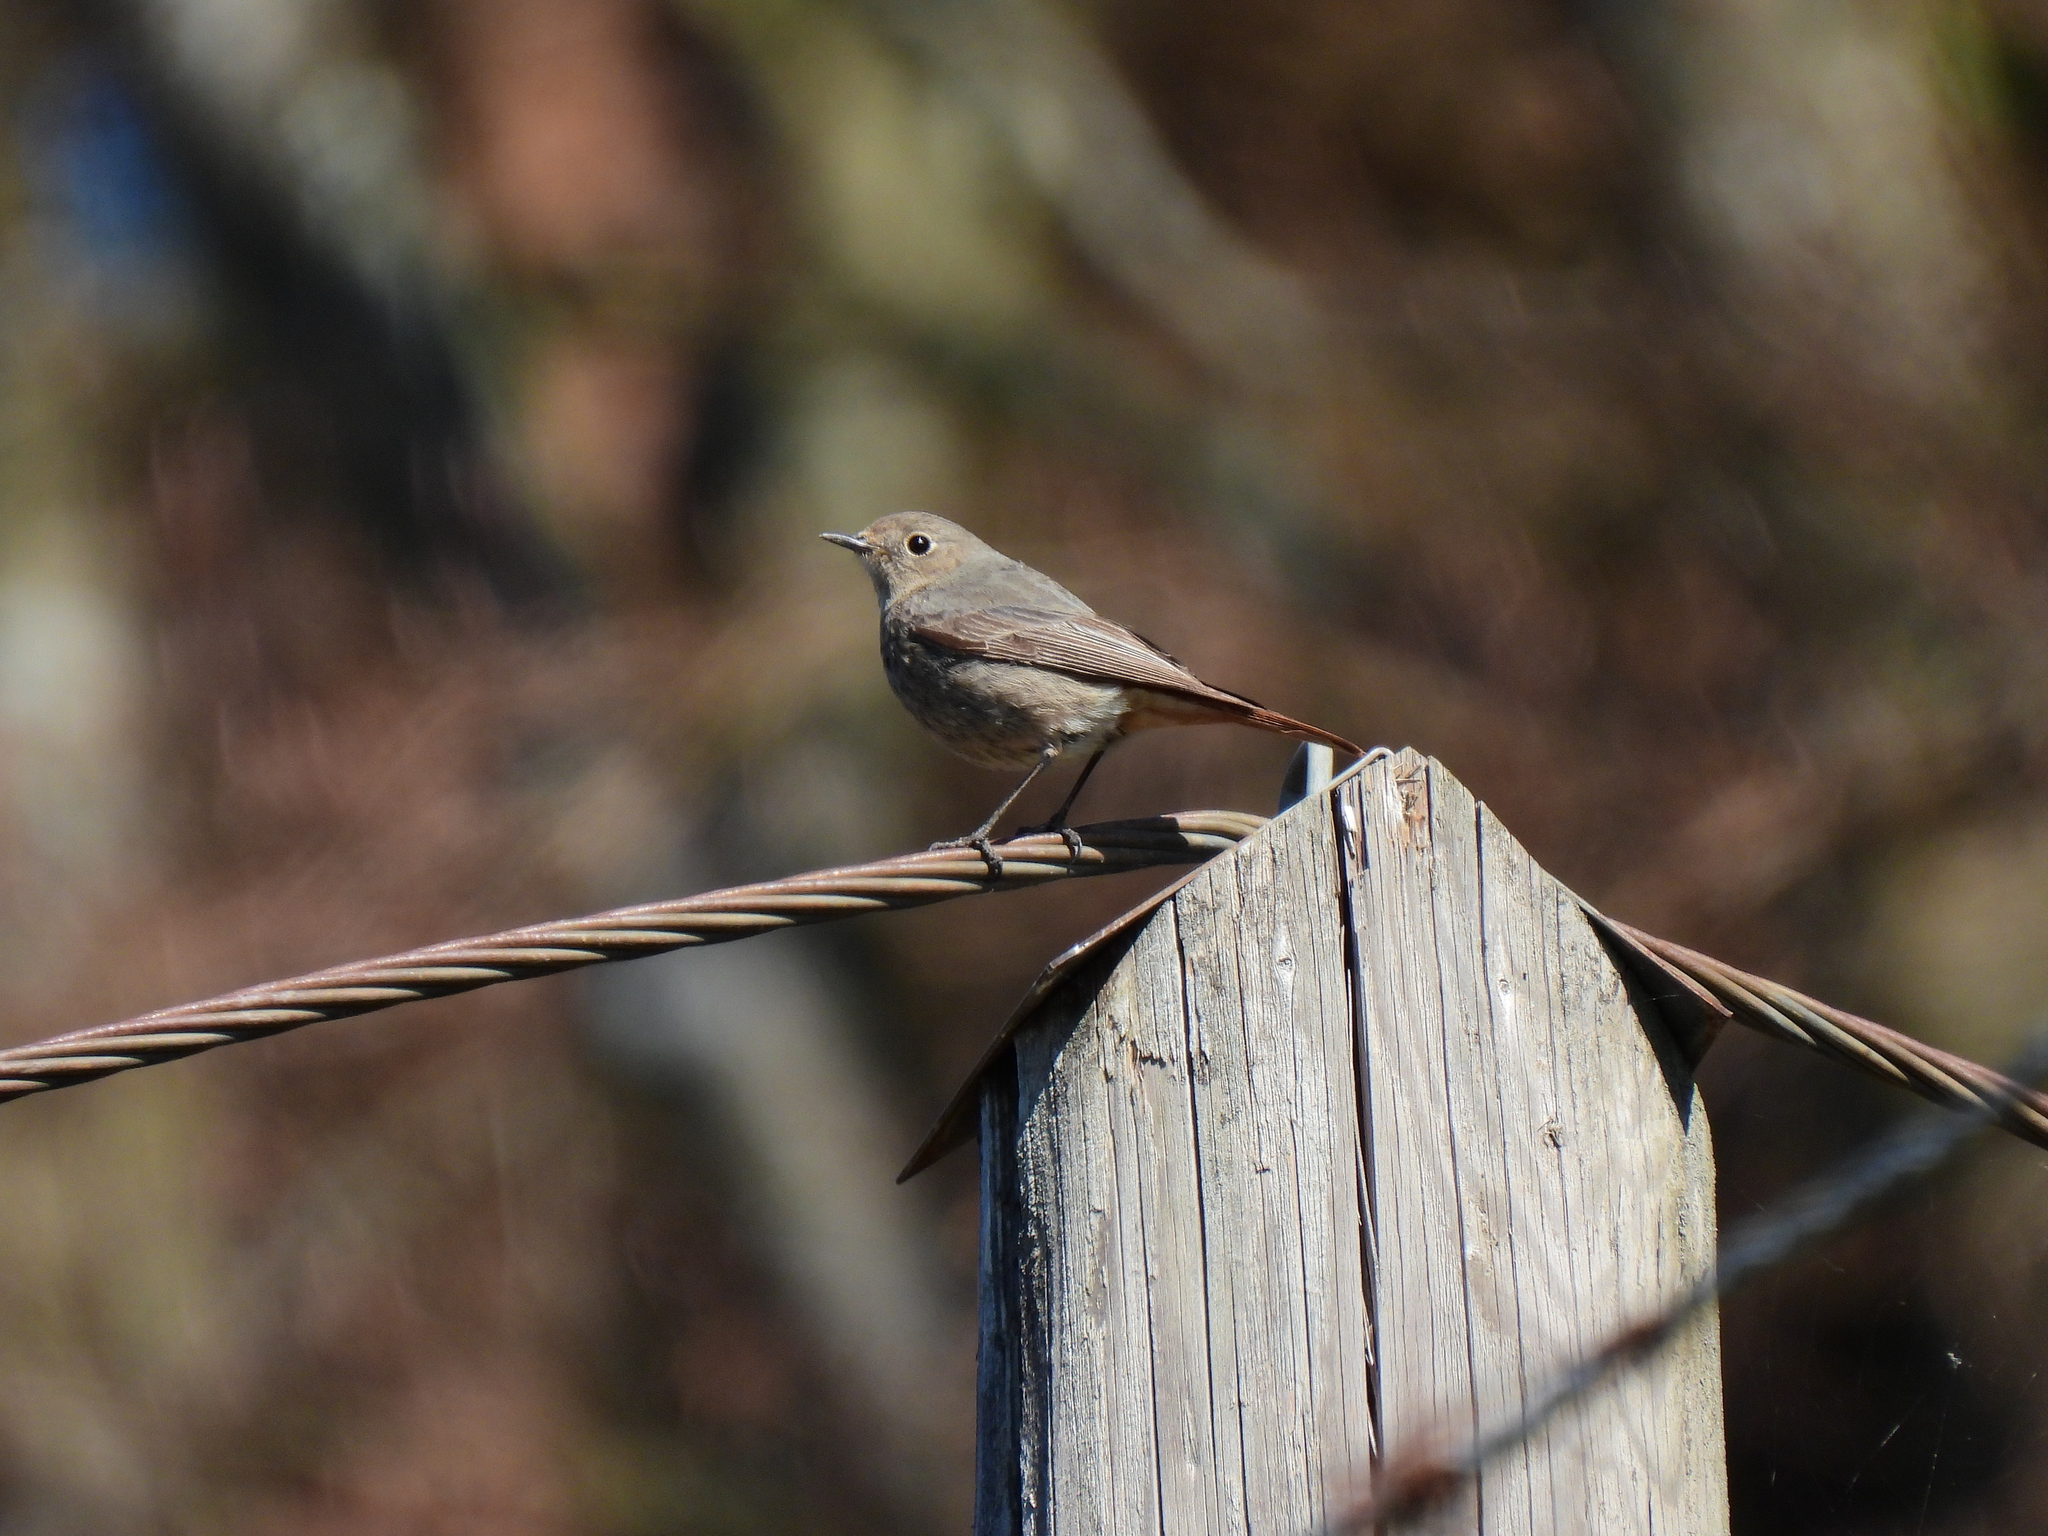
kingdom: Animalia
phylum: Chordata
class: Aves
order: Passeriformes
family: Muscicapidae
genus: Phoenicurus
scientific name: Phoenicurus ochruros
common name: Black redstart
